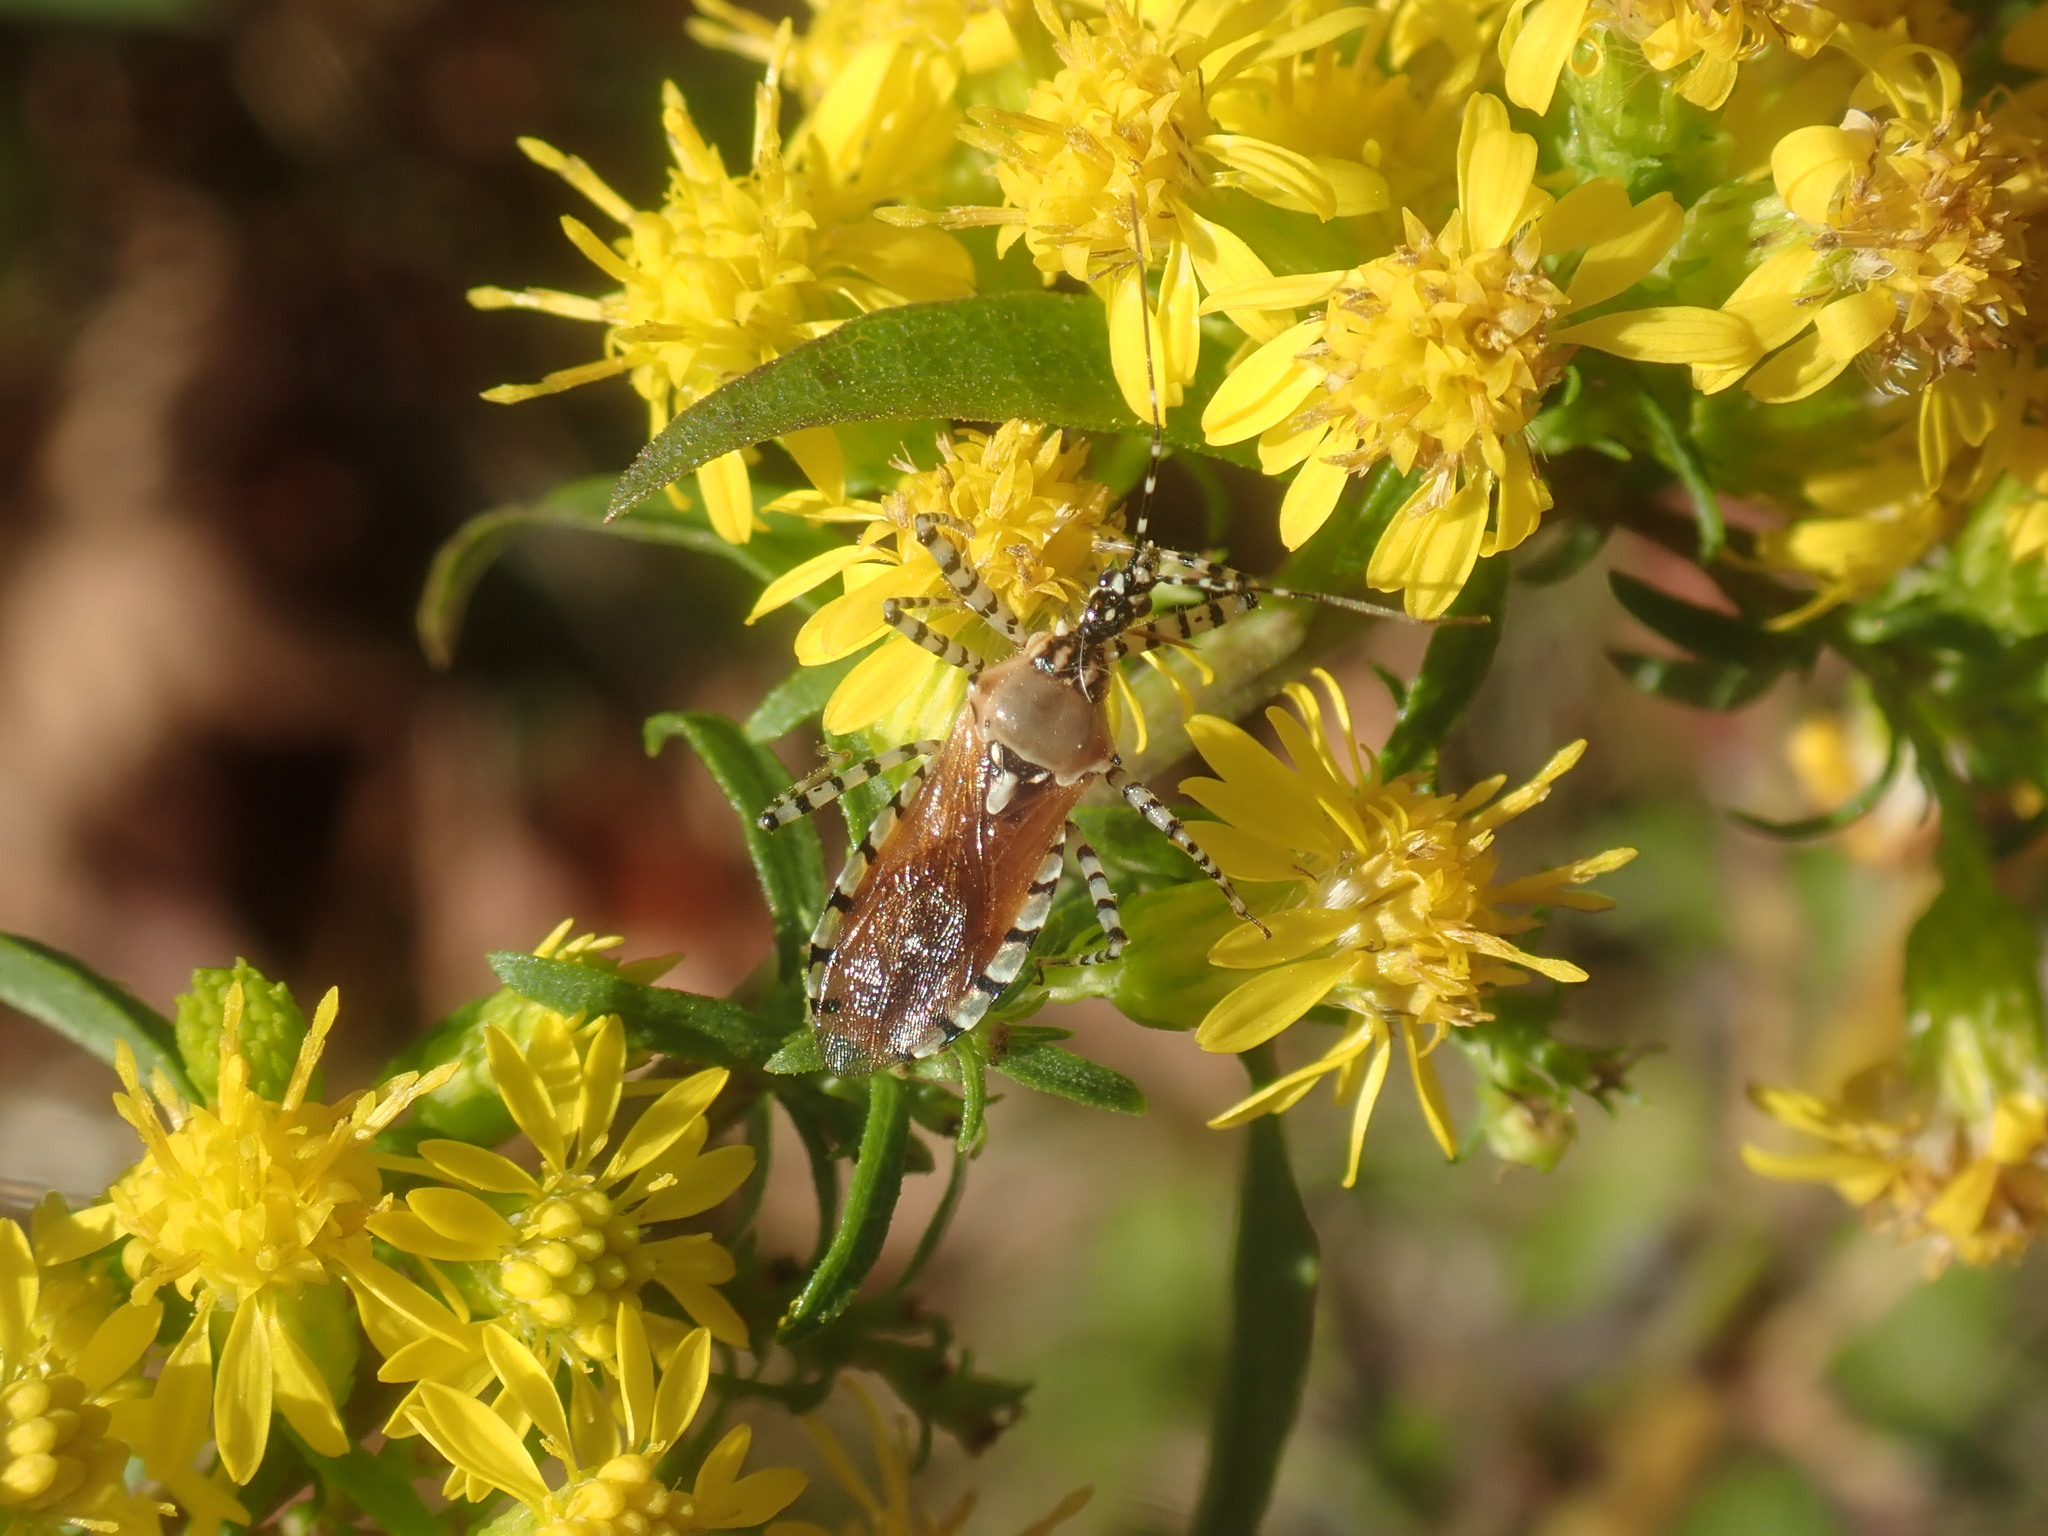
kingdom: Animalia
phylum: Arthropoda
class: Insecta
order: Hemiptera
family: Reduviidae
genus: Pselliopus
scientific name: Pselliopus cinctus
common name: Ringed assassin bug
